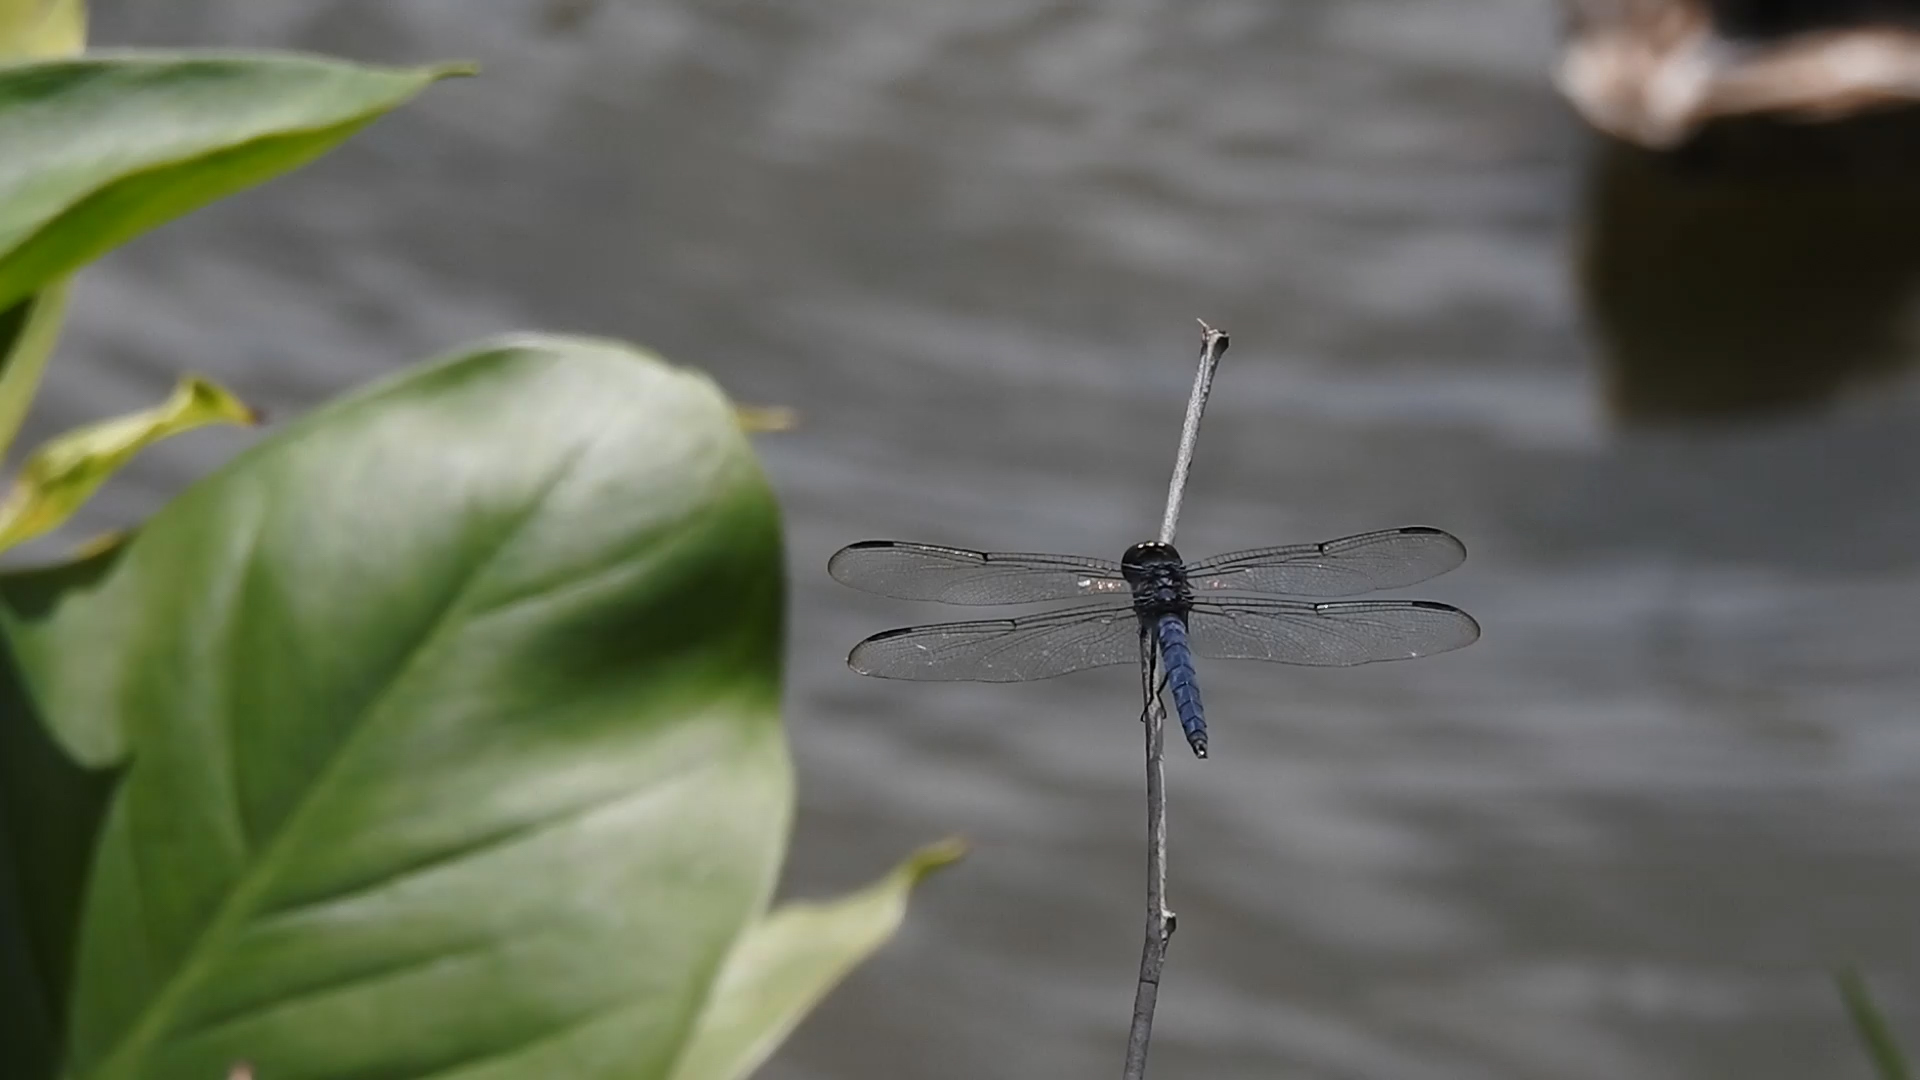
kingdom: Animalia
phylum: Arthropoda
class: Insecta
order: Odonata
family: Libellulidae
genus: Libellula
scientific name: Libellula incesta
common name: Slaty skimmer
